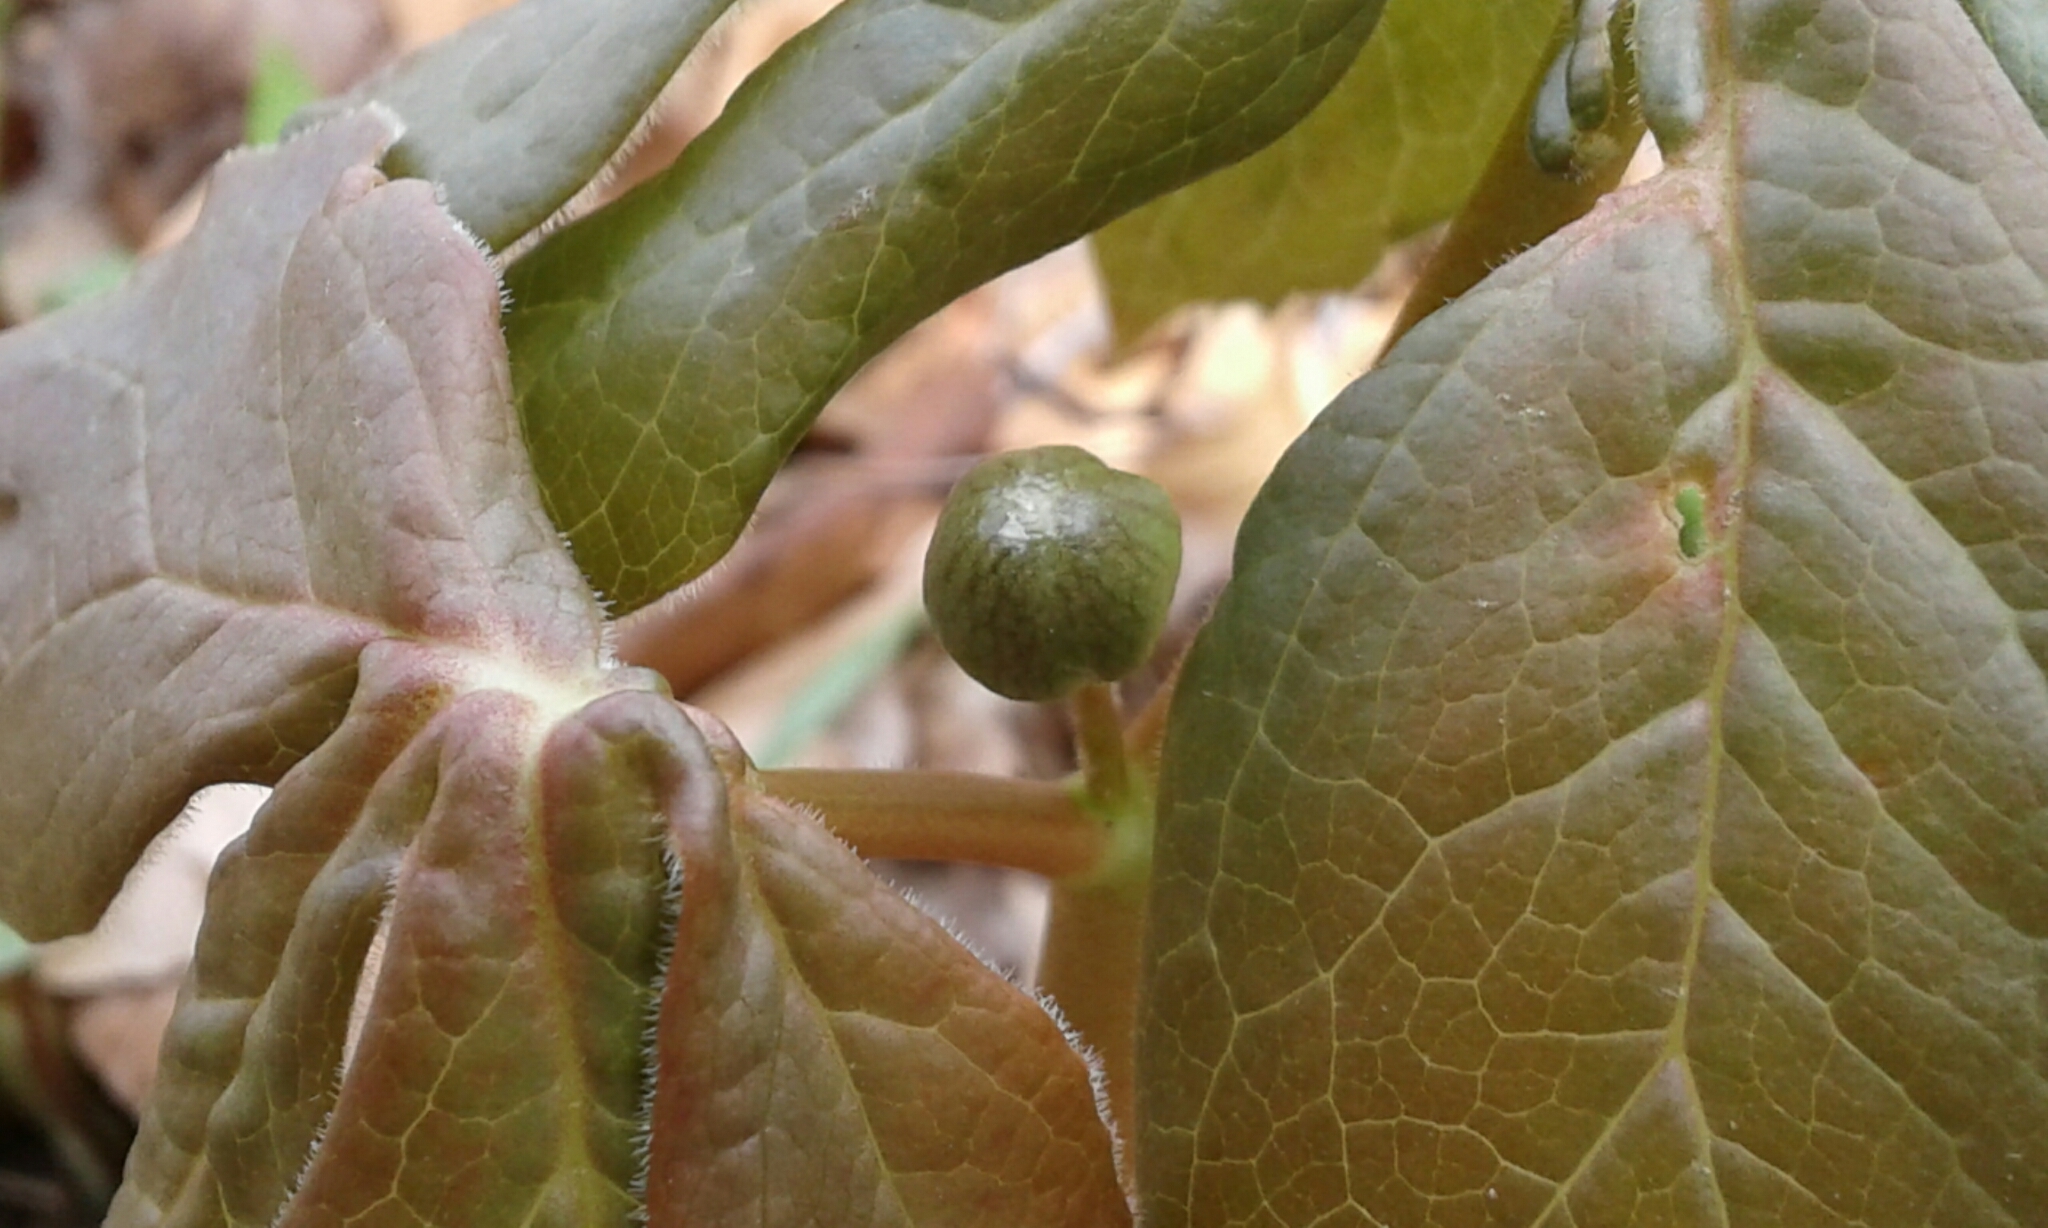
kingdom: Plantae
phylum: Tracheophyta
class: Magnoliopsida
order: Ranunculales
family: Berberidaceae
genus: Podophyllum
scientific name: Podophyllum peltatum
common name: Wild mandrake
